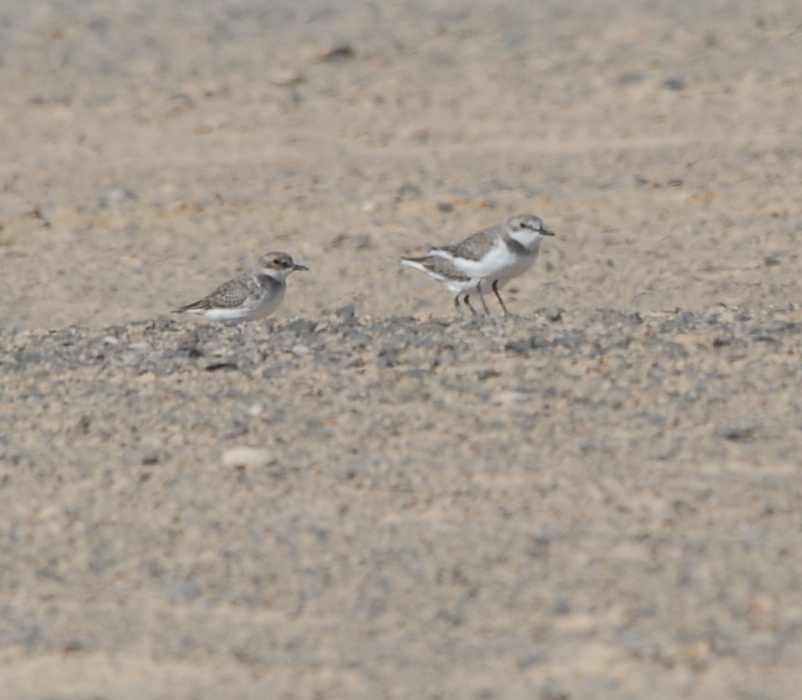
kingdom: Animalia
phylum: Chordata
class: Aves
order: Charadriiformes
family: Charadriidae
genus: Charadrius
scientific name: Charadrius leschenaultii
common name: Greater sand plover
